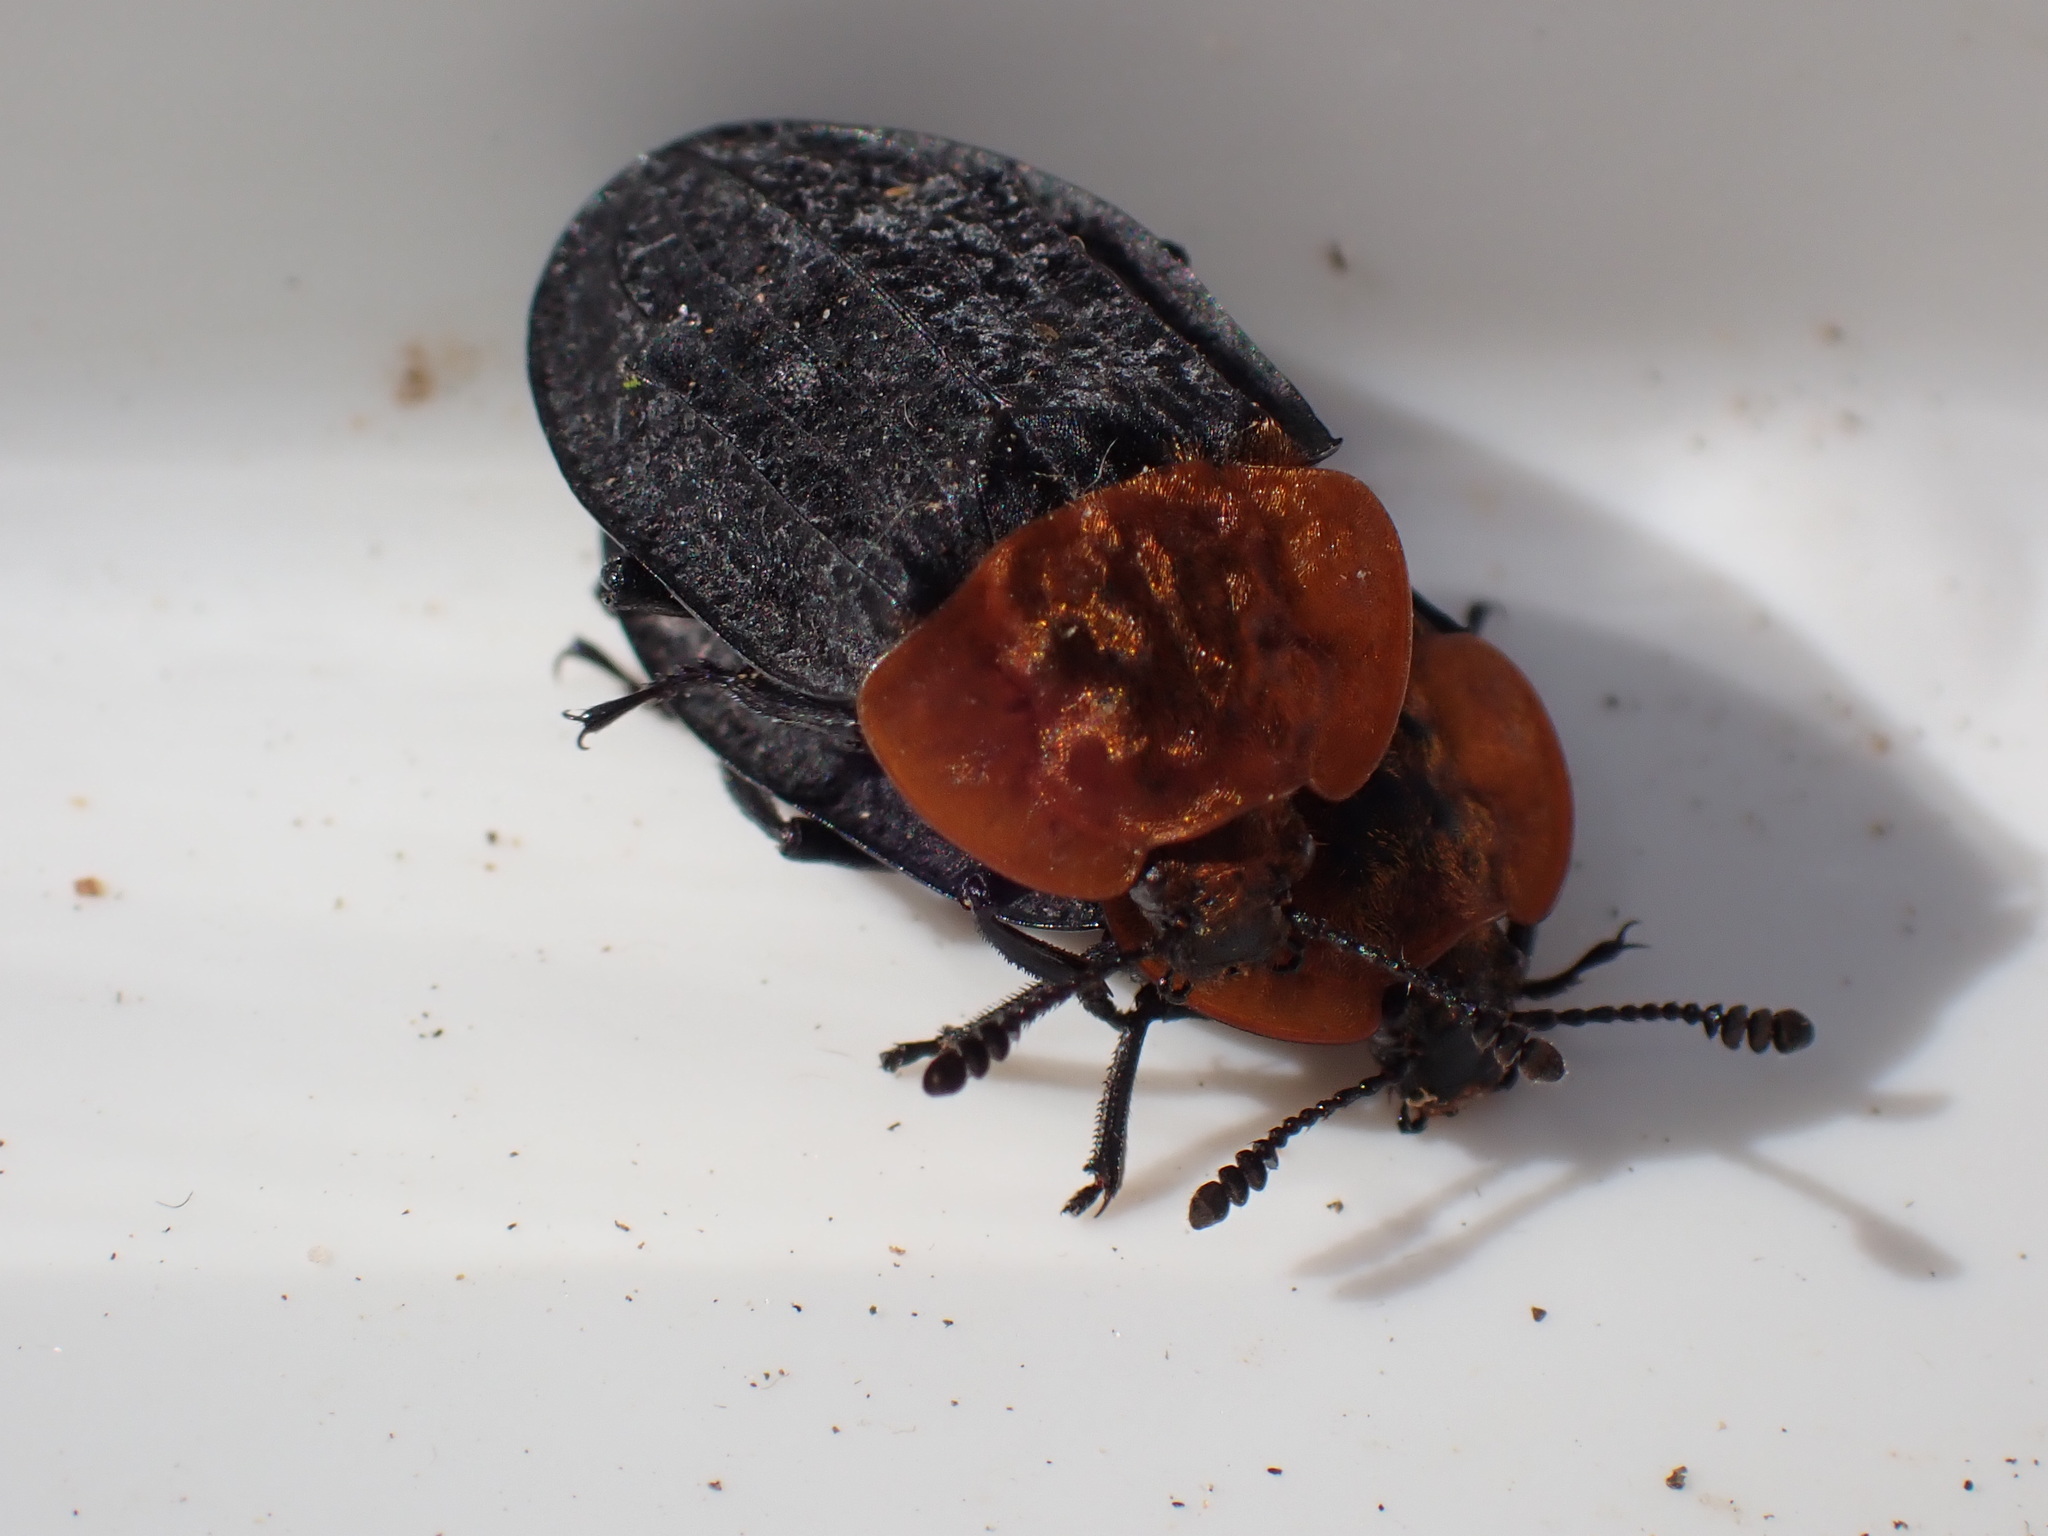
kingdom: Animalia
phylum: Arthropoda
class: Insecta
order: Coleoptera
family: Staphylinidae
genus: Oiceoptoma
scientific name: Oiceoptoma thoracicum
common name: Red-breasted carrion beetle
